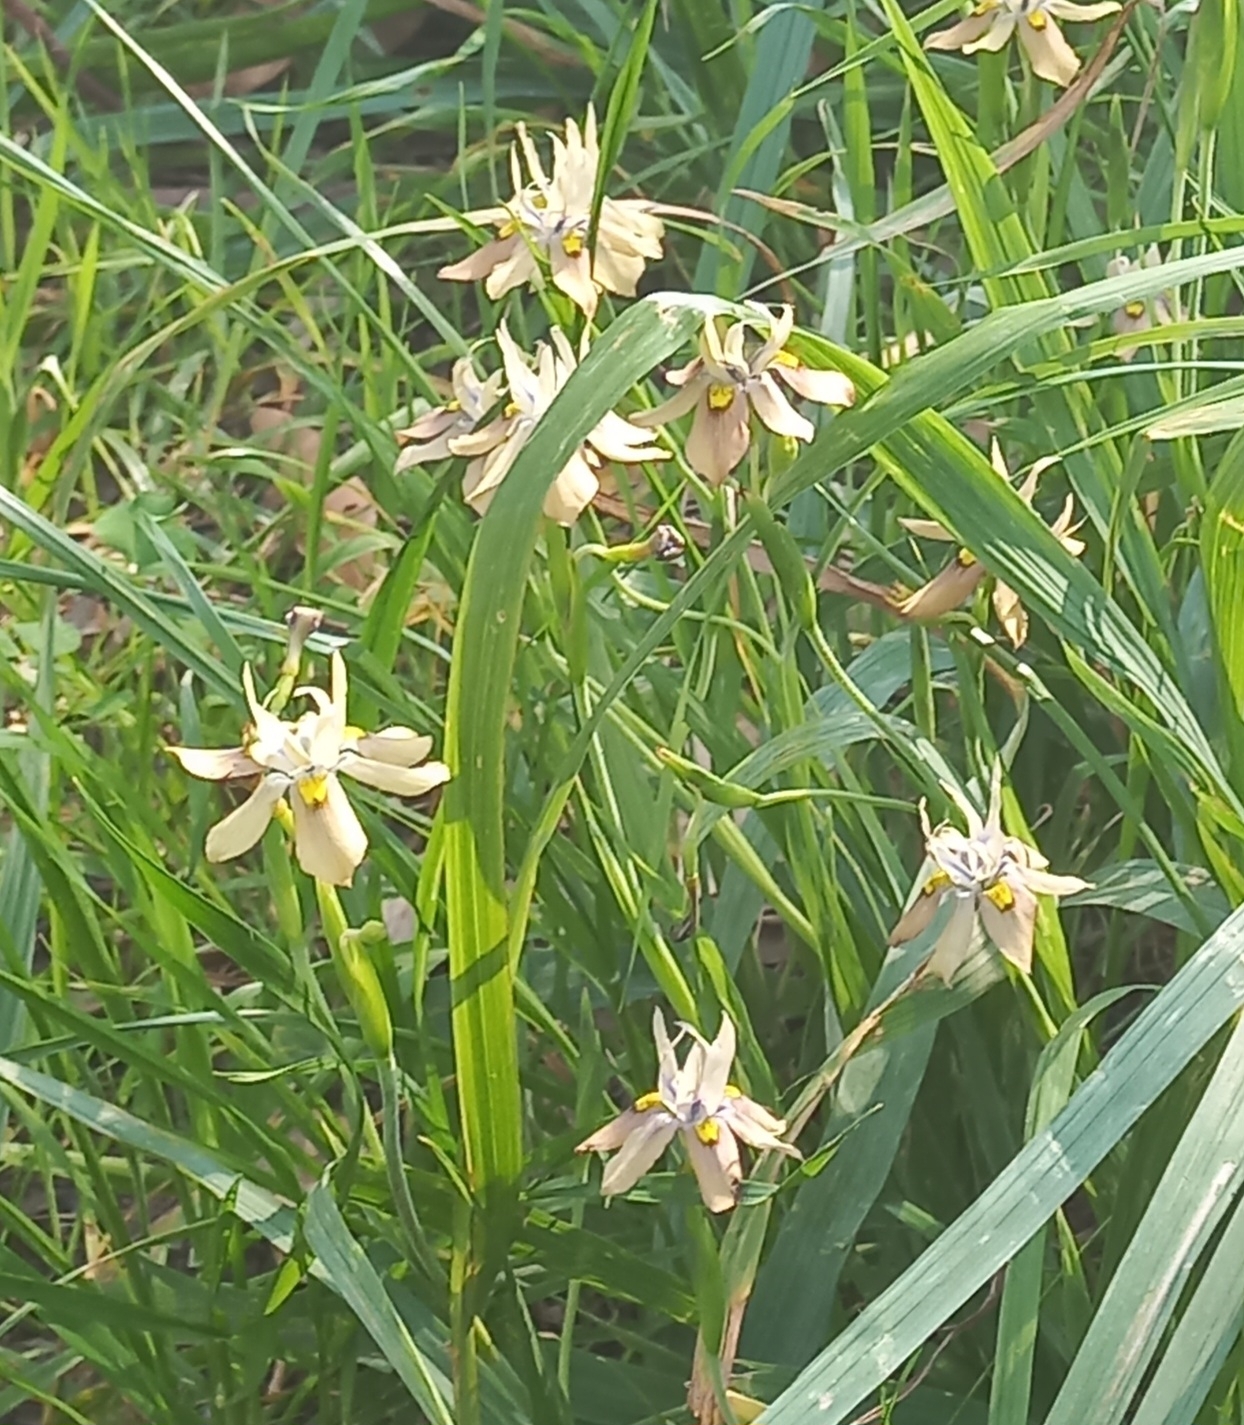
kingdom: Plantae
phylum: Tracheophyta
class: Liliopsida
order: Asparagales
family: Iridaceae
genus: Moraea
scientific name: Moraea vegeta
